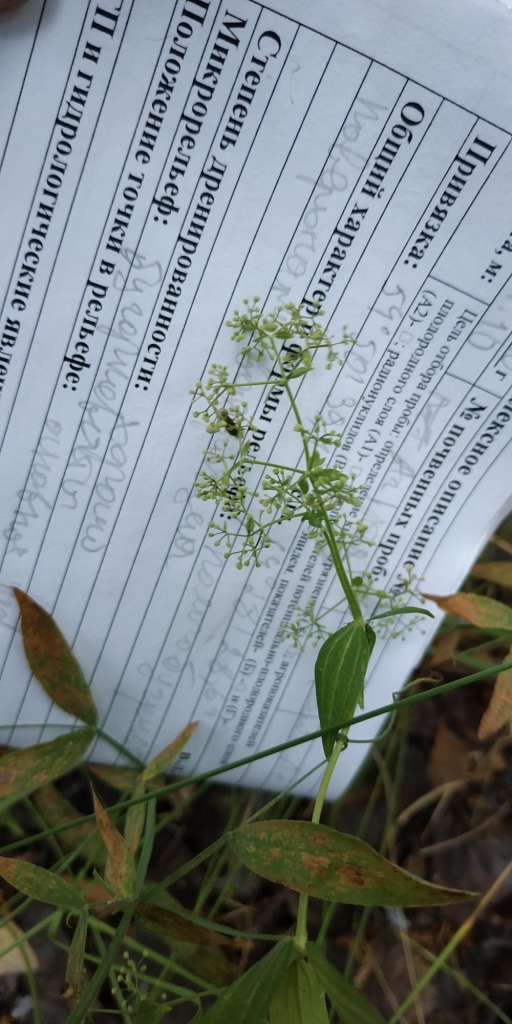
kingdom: Plantae
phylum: Tracheophyta
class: Magnoliopsida
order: Gentianales
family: Rubiaceae
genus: Galium
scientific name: Galium boreale
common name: Northern bedstraw
